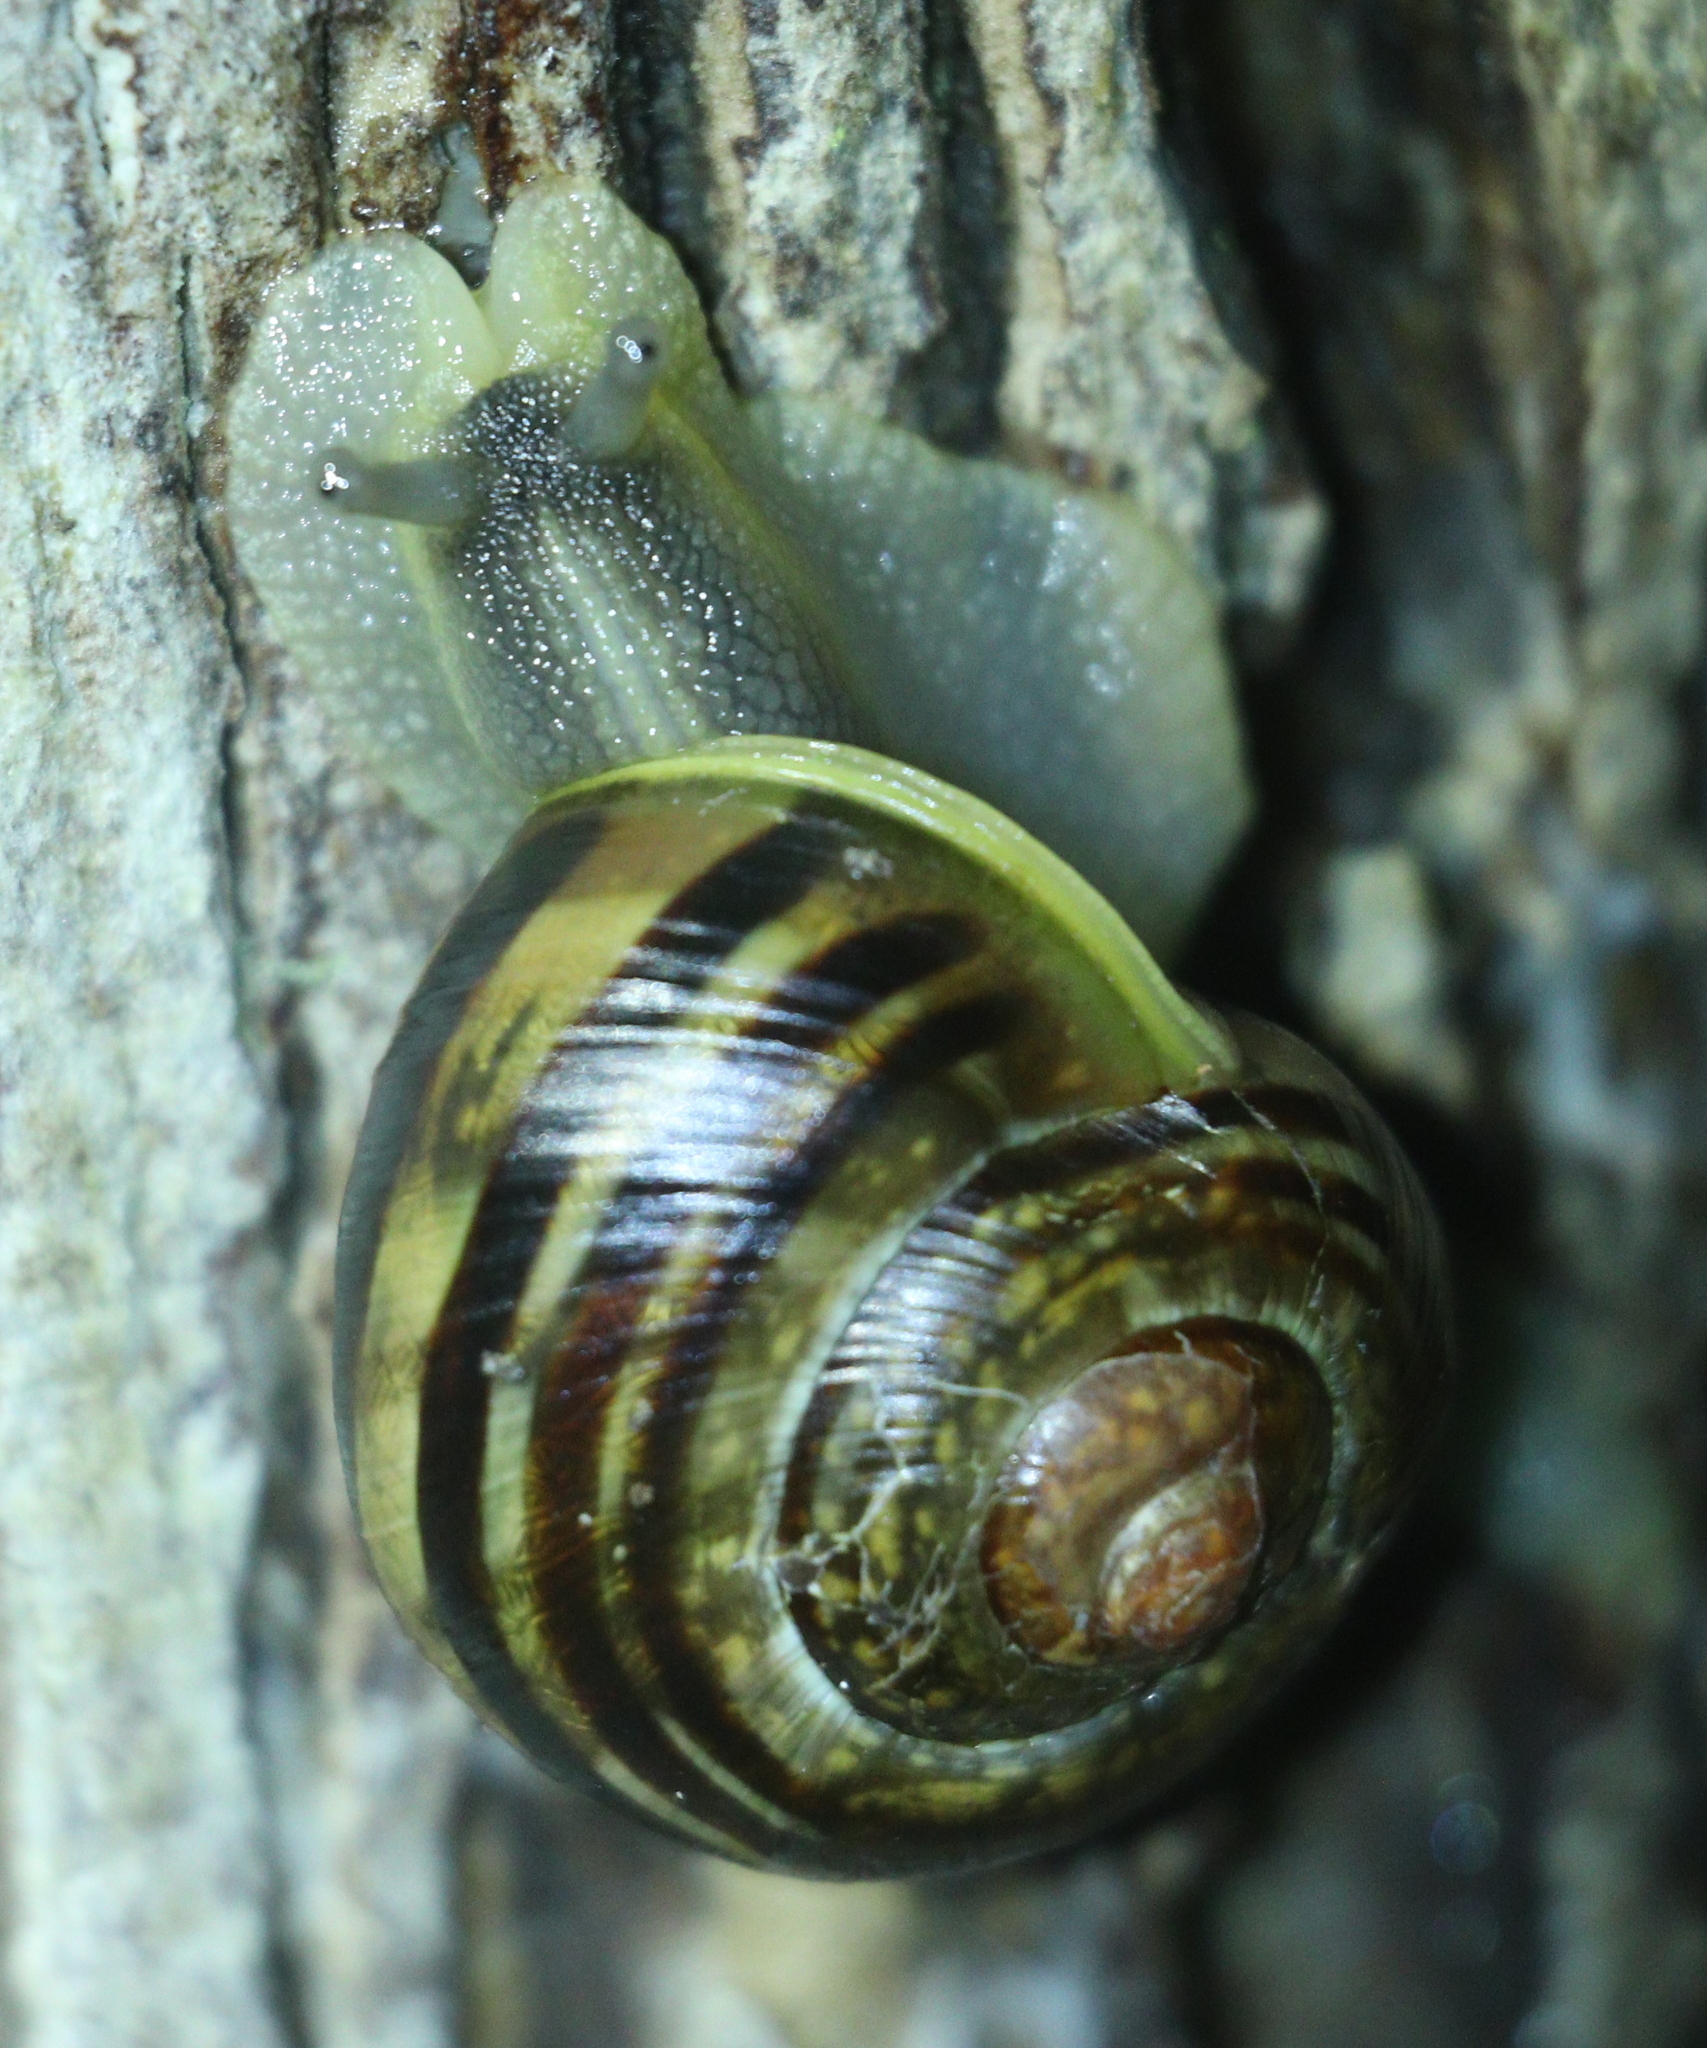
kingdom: Animalia
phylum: Mollusca
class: Gastropoda
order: Stylommatophora
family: Helicidae
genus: Cepaea
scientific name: Cepaea nemoralis
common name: Grovesnail
